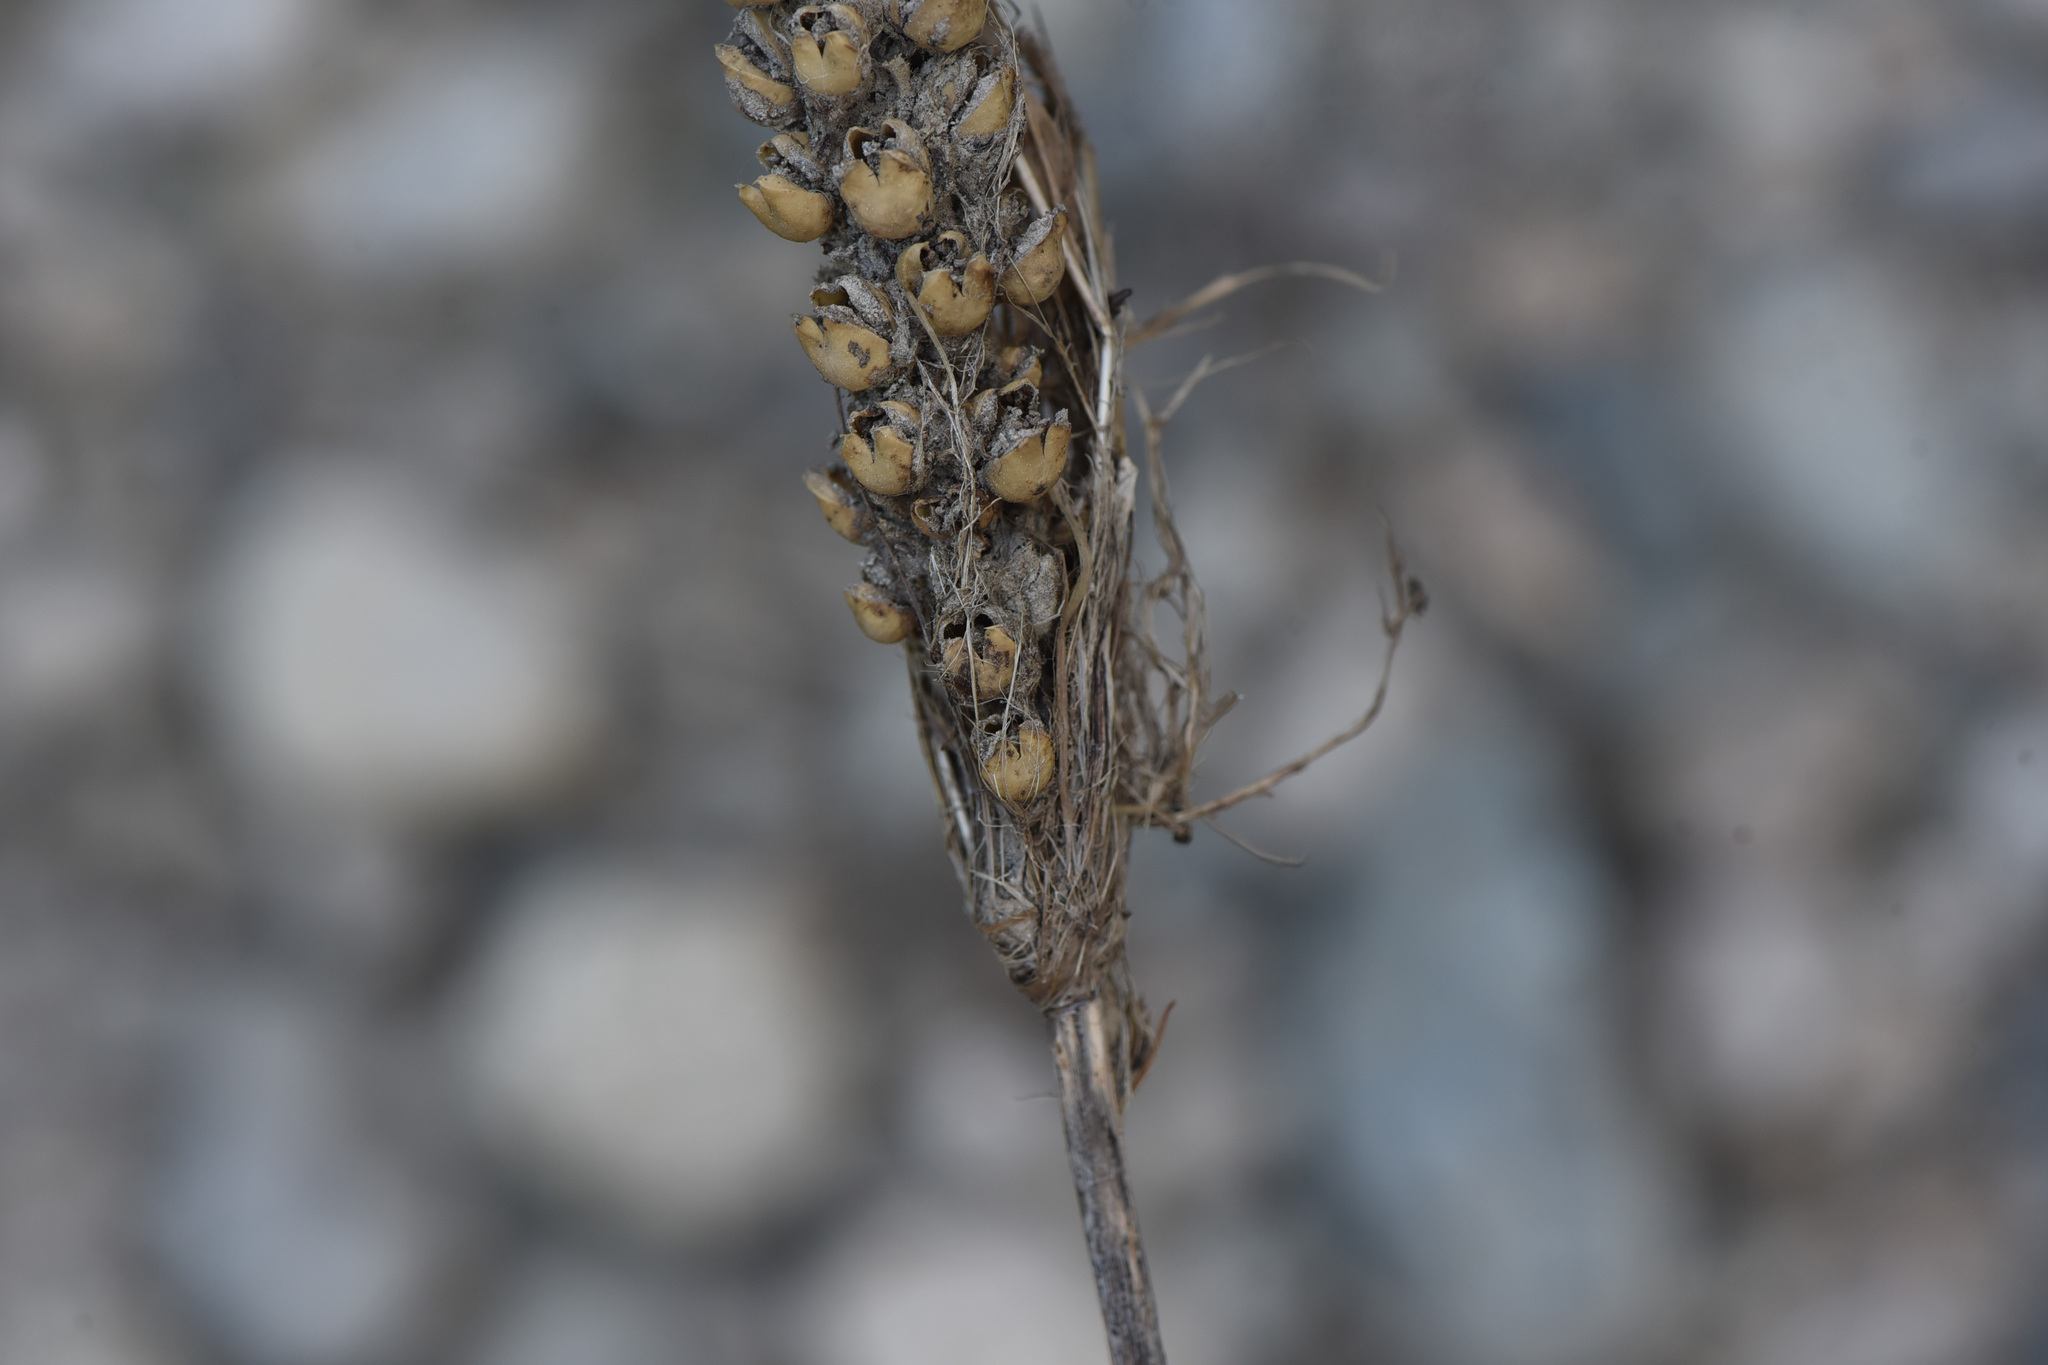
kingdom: Plantae
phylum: Tracheophyta
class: Magnoliopsida
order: Lamiales
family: Scrophulariaceae
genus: Verbascum
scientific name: Verbascum thapsus
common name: Common mullein
